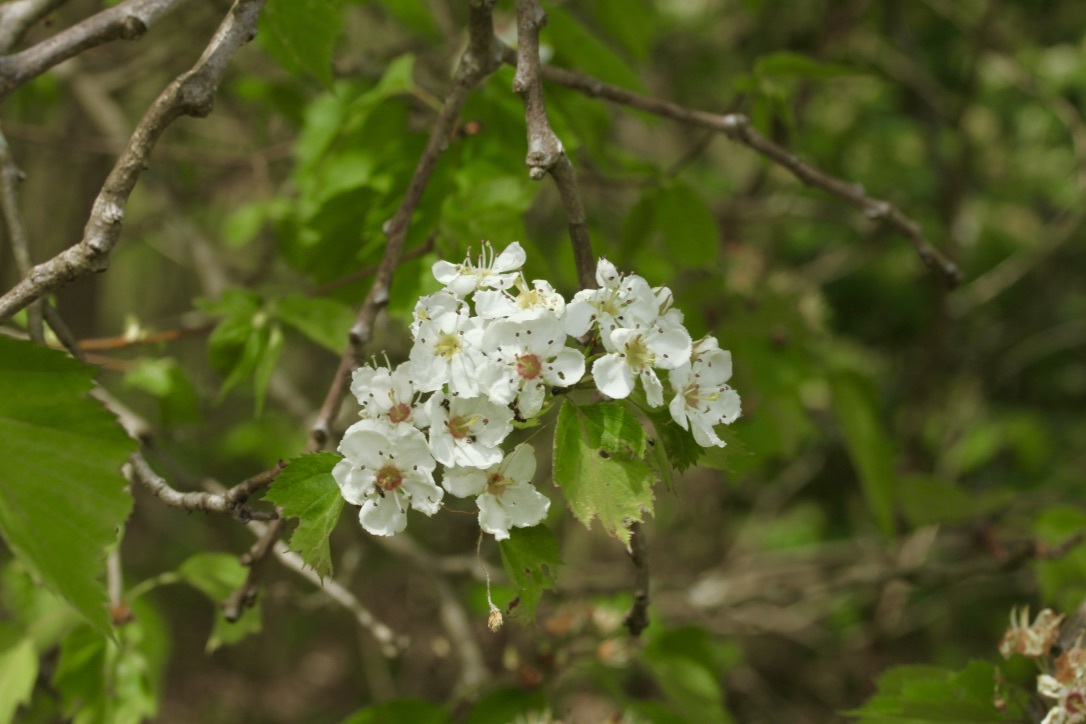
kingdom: Plantae
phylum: Tracheophyta
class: Magnoliopsida
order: Rosales
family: Rosaceae
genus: Crataegus
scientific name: Crataegus monogyna
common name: Hawthorn
